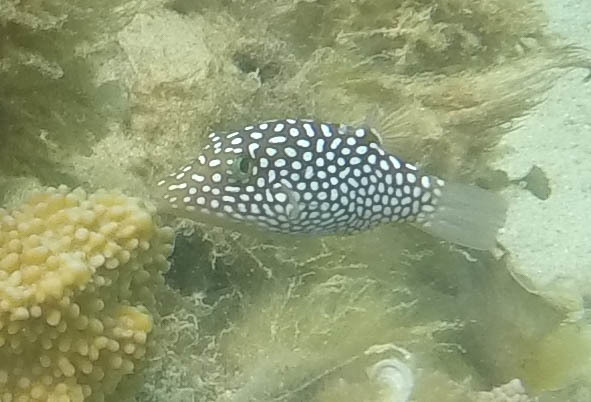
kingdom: Animalia
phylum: Chordata
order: Tetraodontiformes
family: Tetraodontidae
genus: Canthigaster
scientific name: Canthigaster jactator
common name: Hawaiian whitespotted toby
